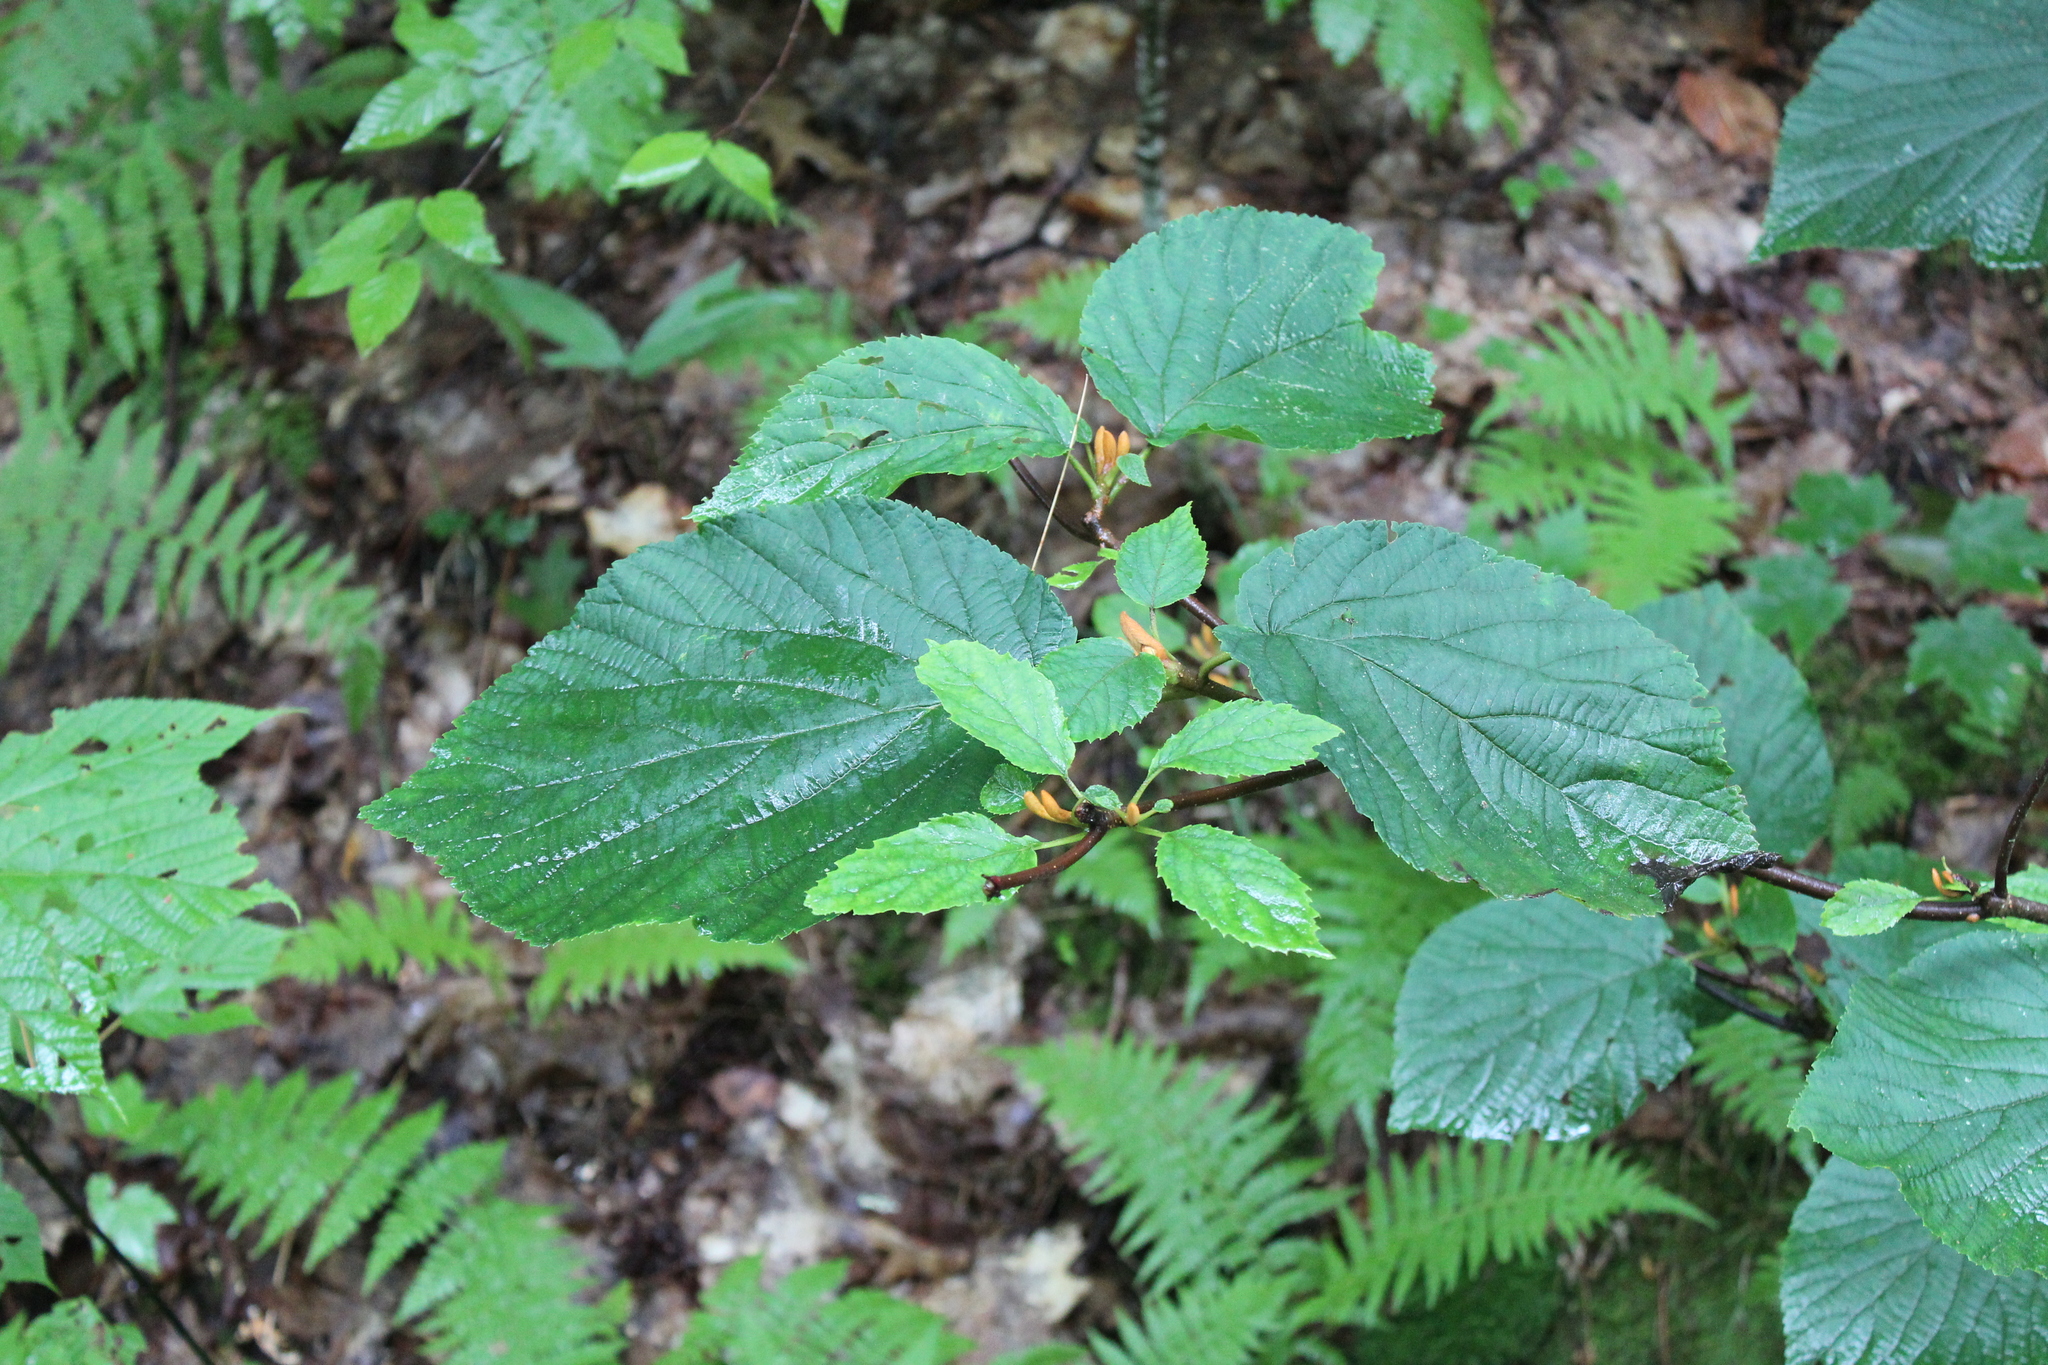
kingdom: Plantae
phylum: Tracheophyta
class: Magnoliopsida
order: Dipsacales
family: Viburnaceae
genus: Viburnum
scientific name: Viburnum lantanoides
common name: Hobblebush
